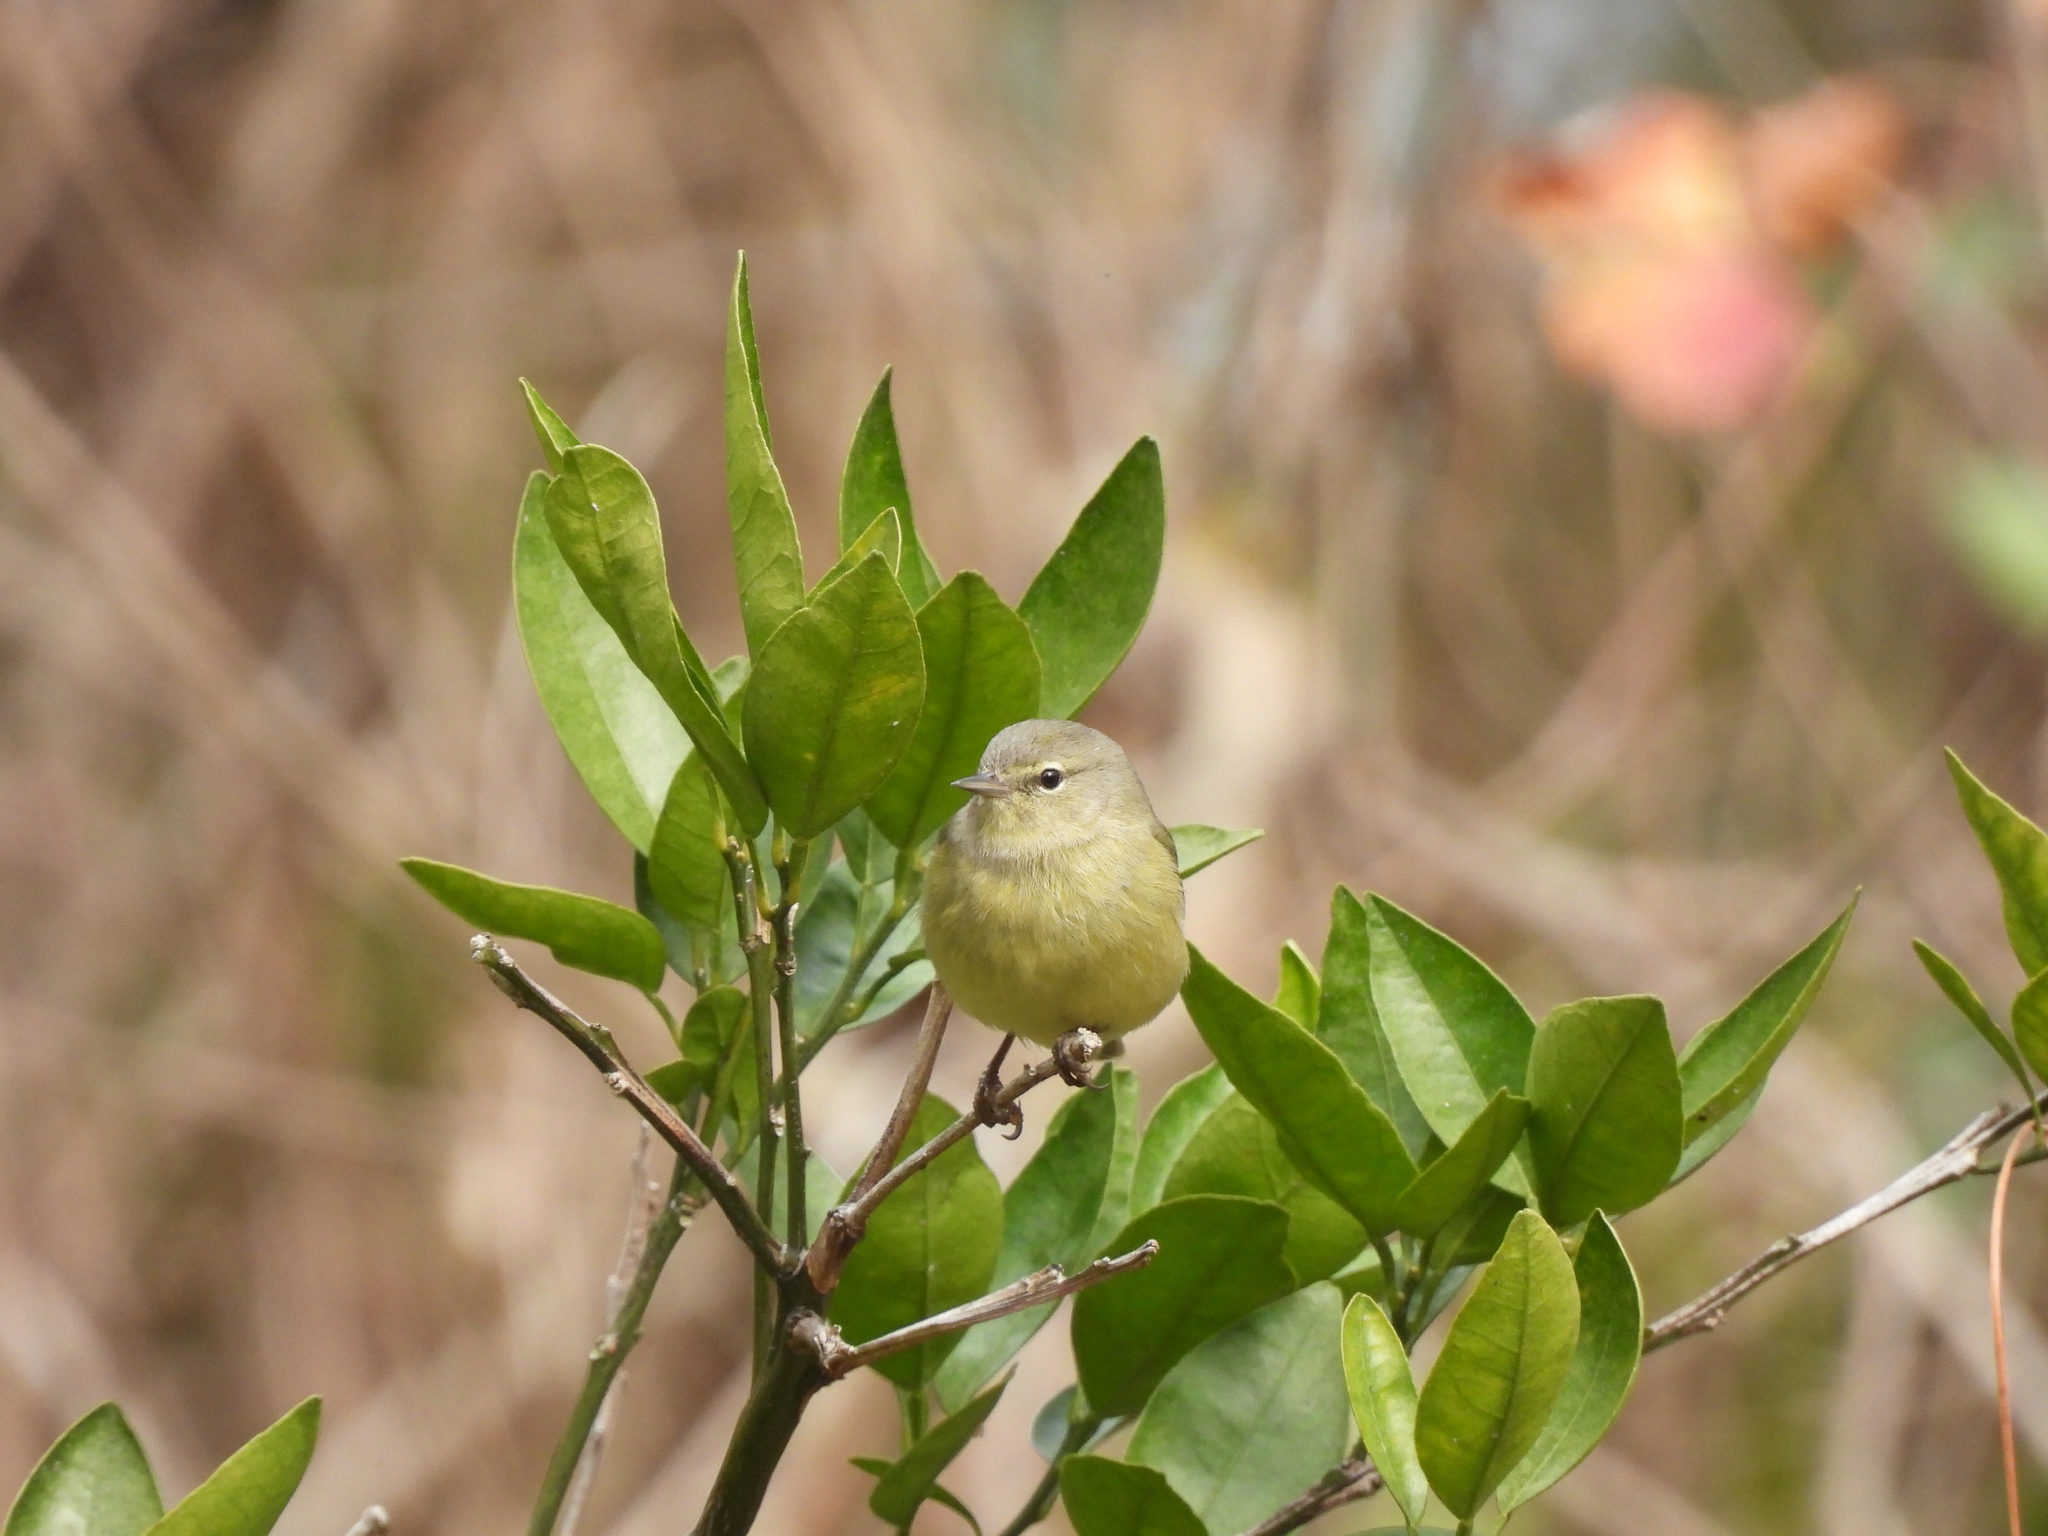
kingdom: Animalia
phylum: Chordata
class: Aves
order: Passeriformes
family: Parulidae
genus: Leiothlypis
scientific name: Leiothlypis celata
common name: Orange-crowned warbler
